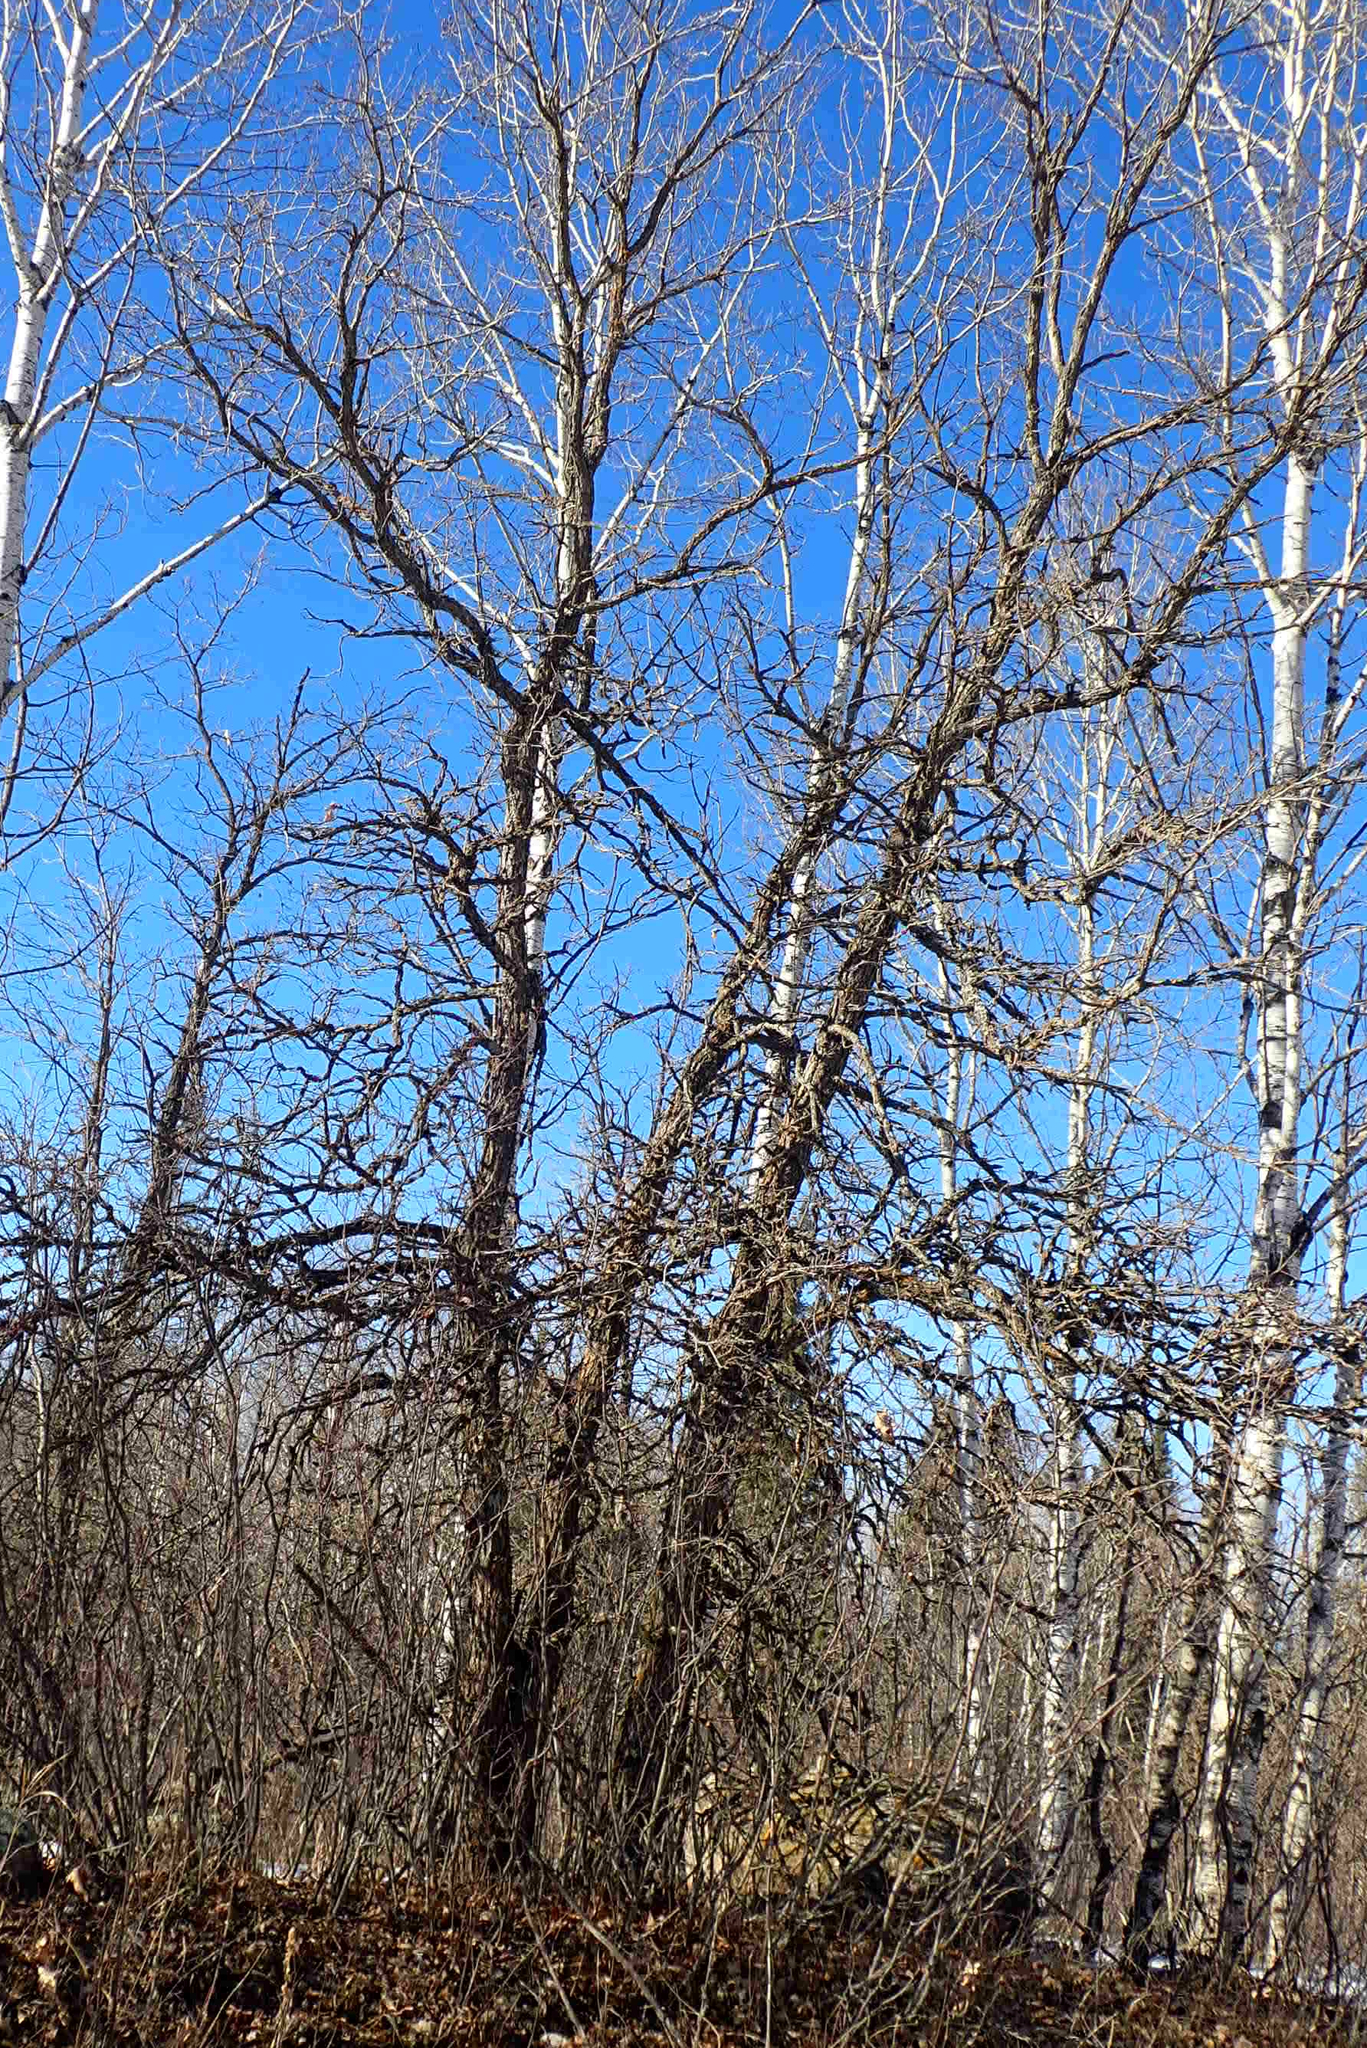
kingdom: Plantae
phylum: Tracheophyta
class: Magnoliopsida
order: Fagales
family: Fagaceae
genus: Quercus
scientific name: Quercus macrocarpa
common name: Bur oak
